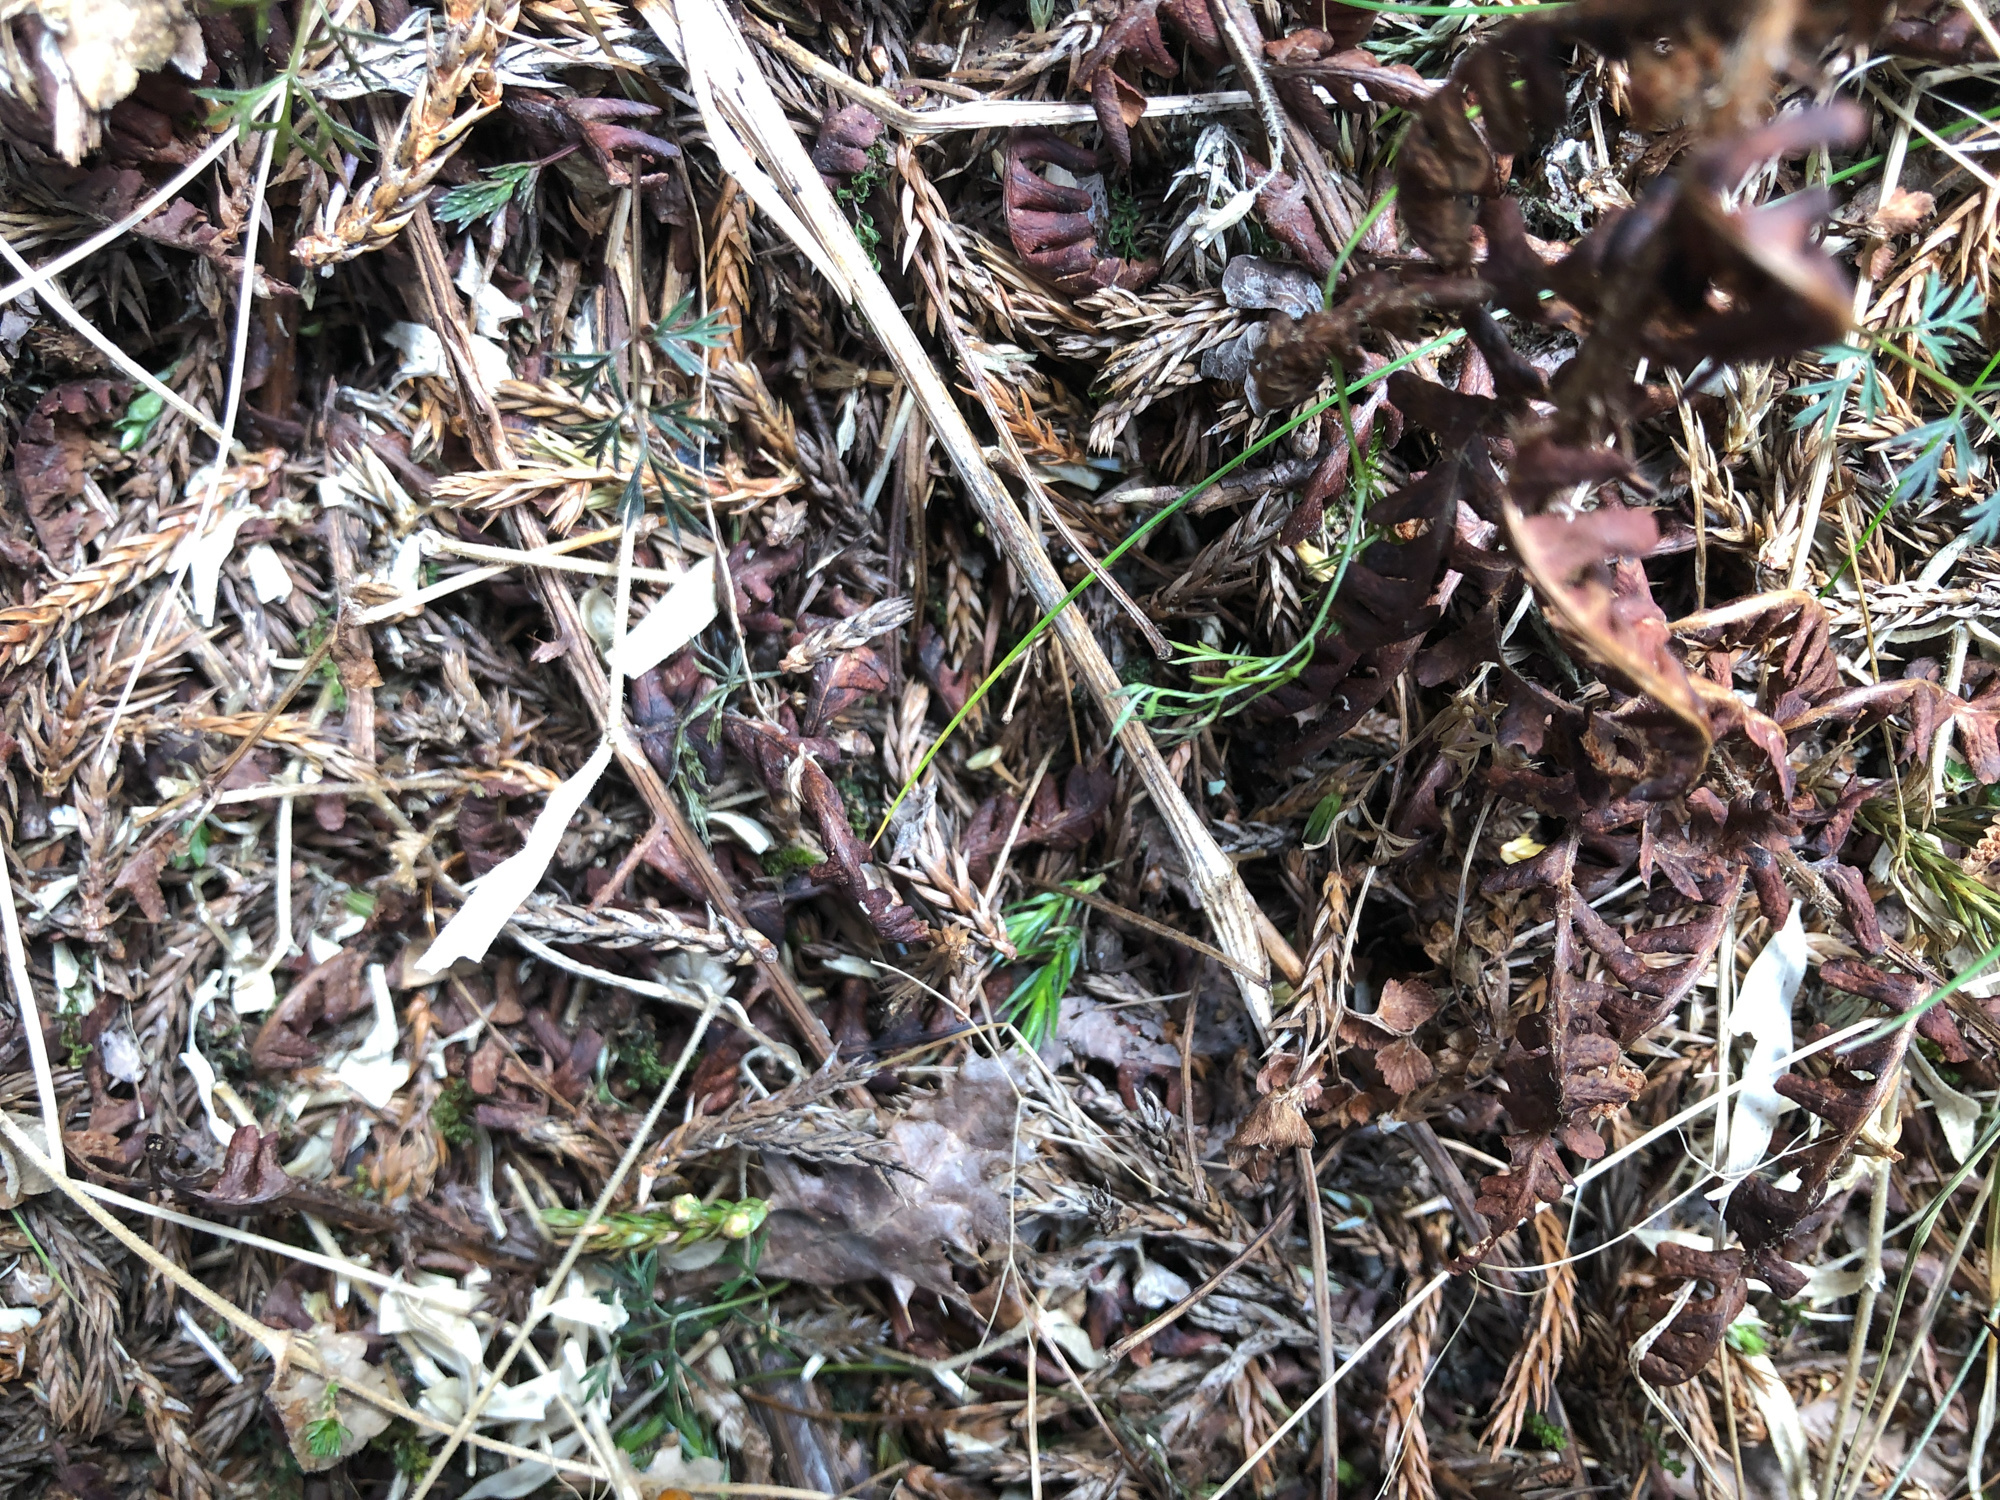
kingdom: Plantae
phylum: Tracheophyta
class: Magnoliopsida
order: Apiales
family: Apiaceae
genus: Chaerophyllum
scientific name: Chaerophyllum involucratum
